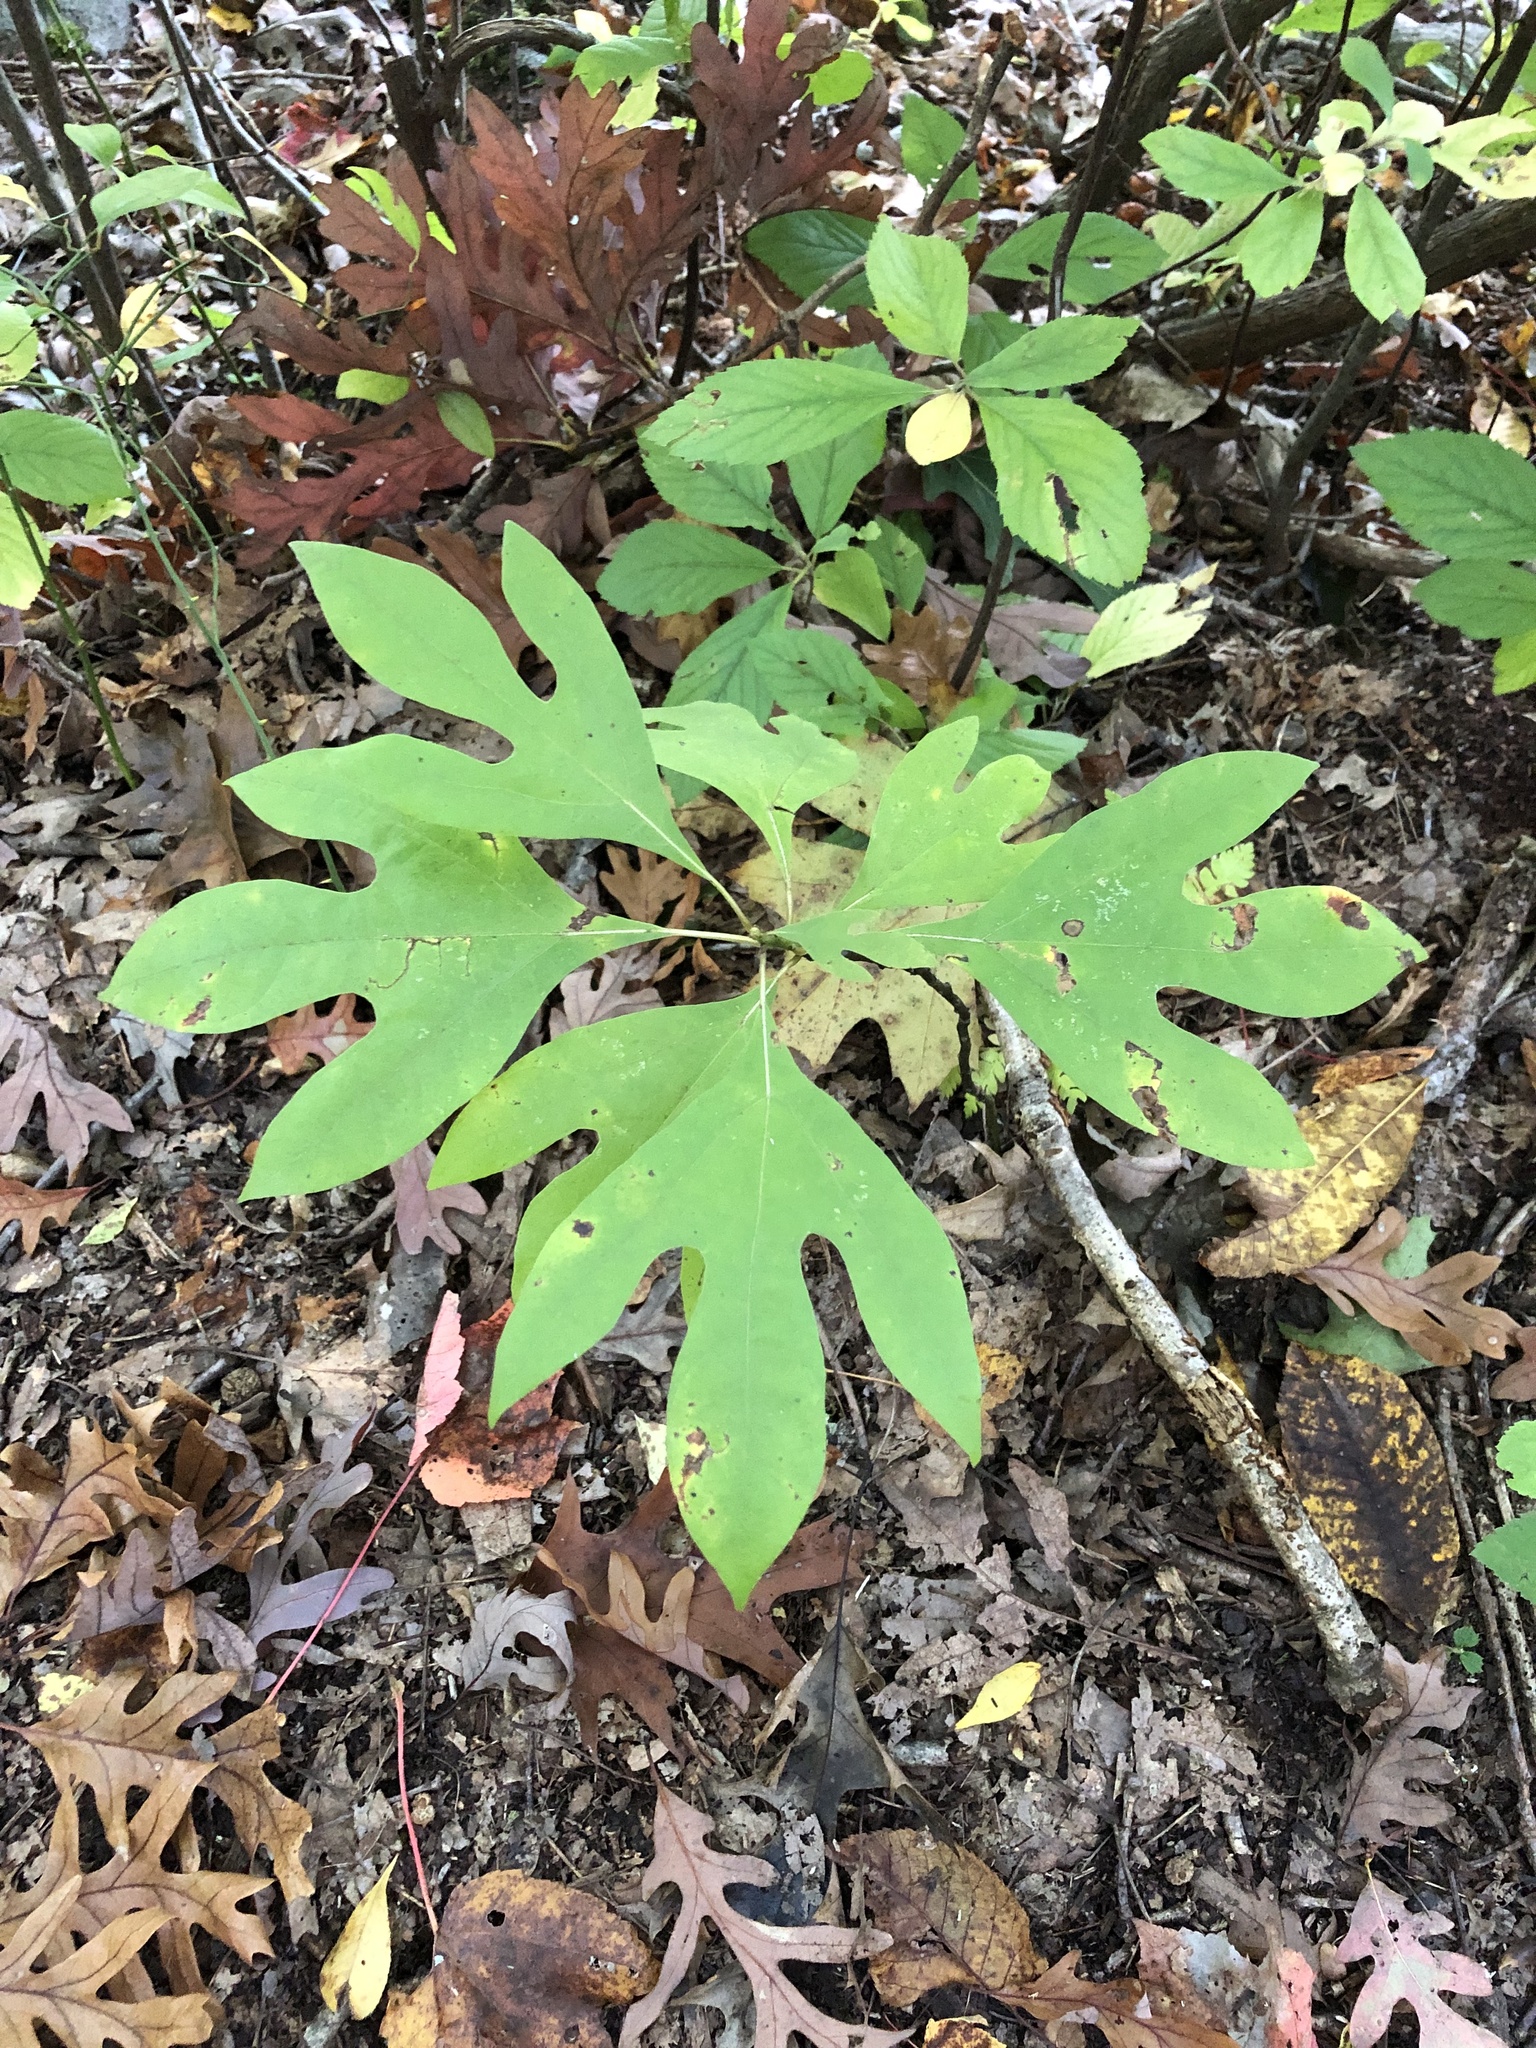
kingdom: Plantae
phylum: Tracheophyta
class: Magnoliopsida
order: Laurales
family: Lauraceae
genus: Sassafras
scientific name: Sassafras albidum
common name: Sassafras
